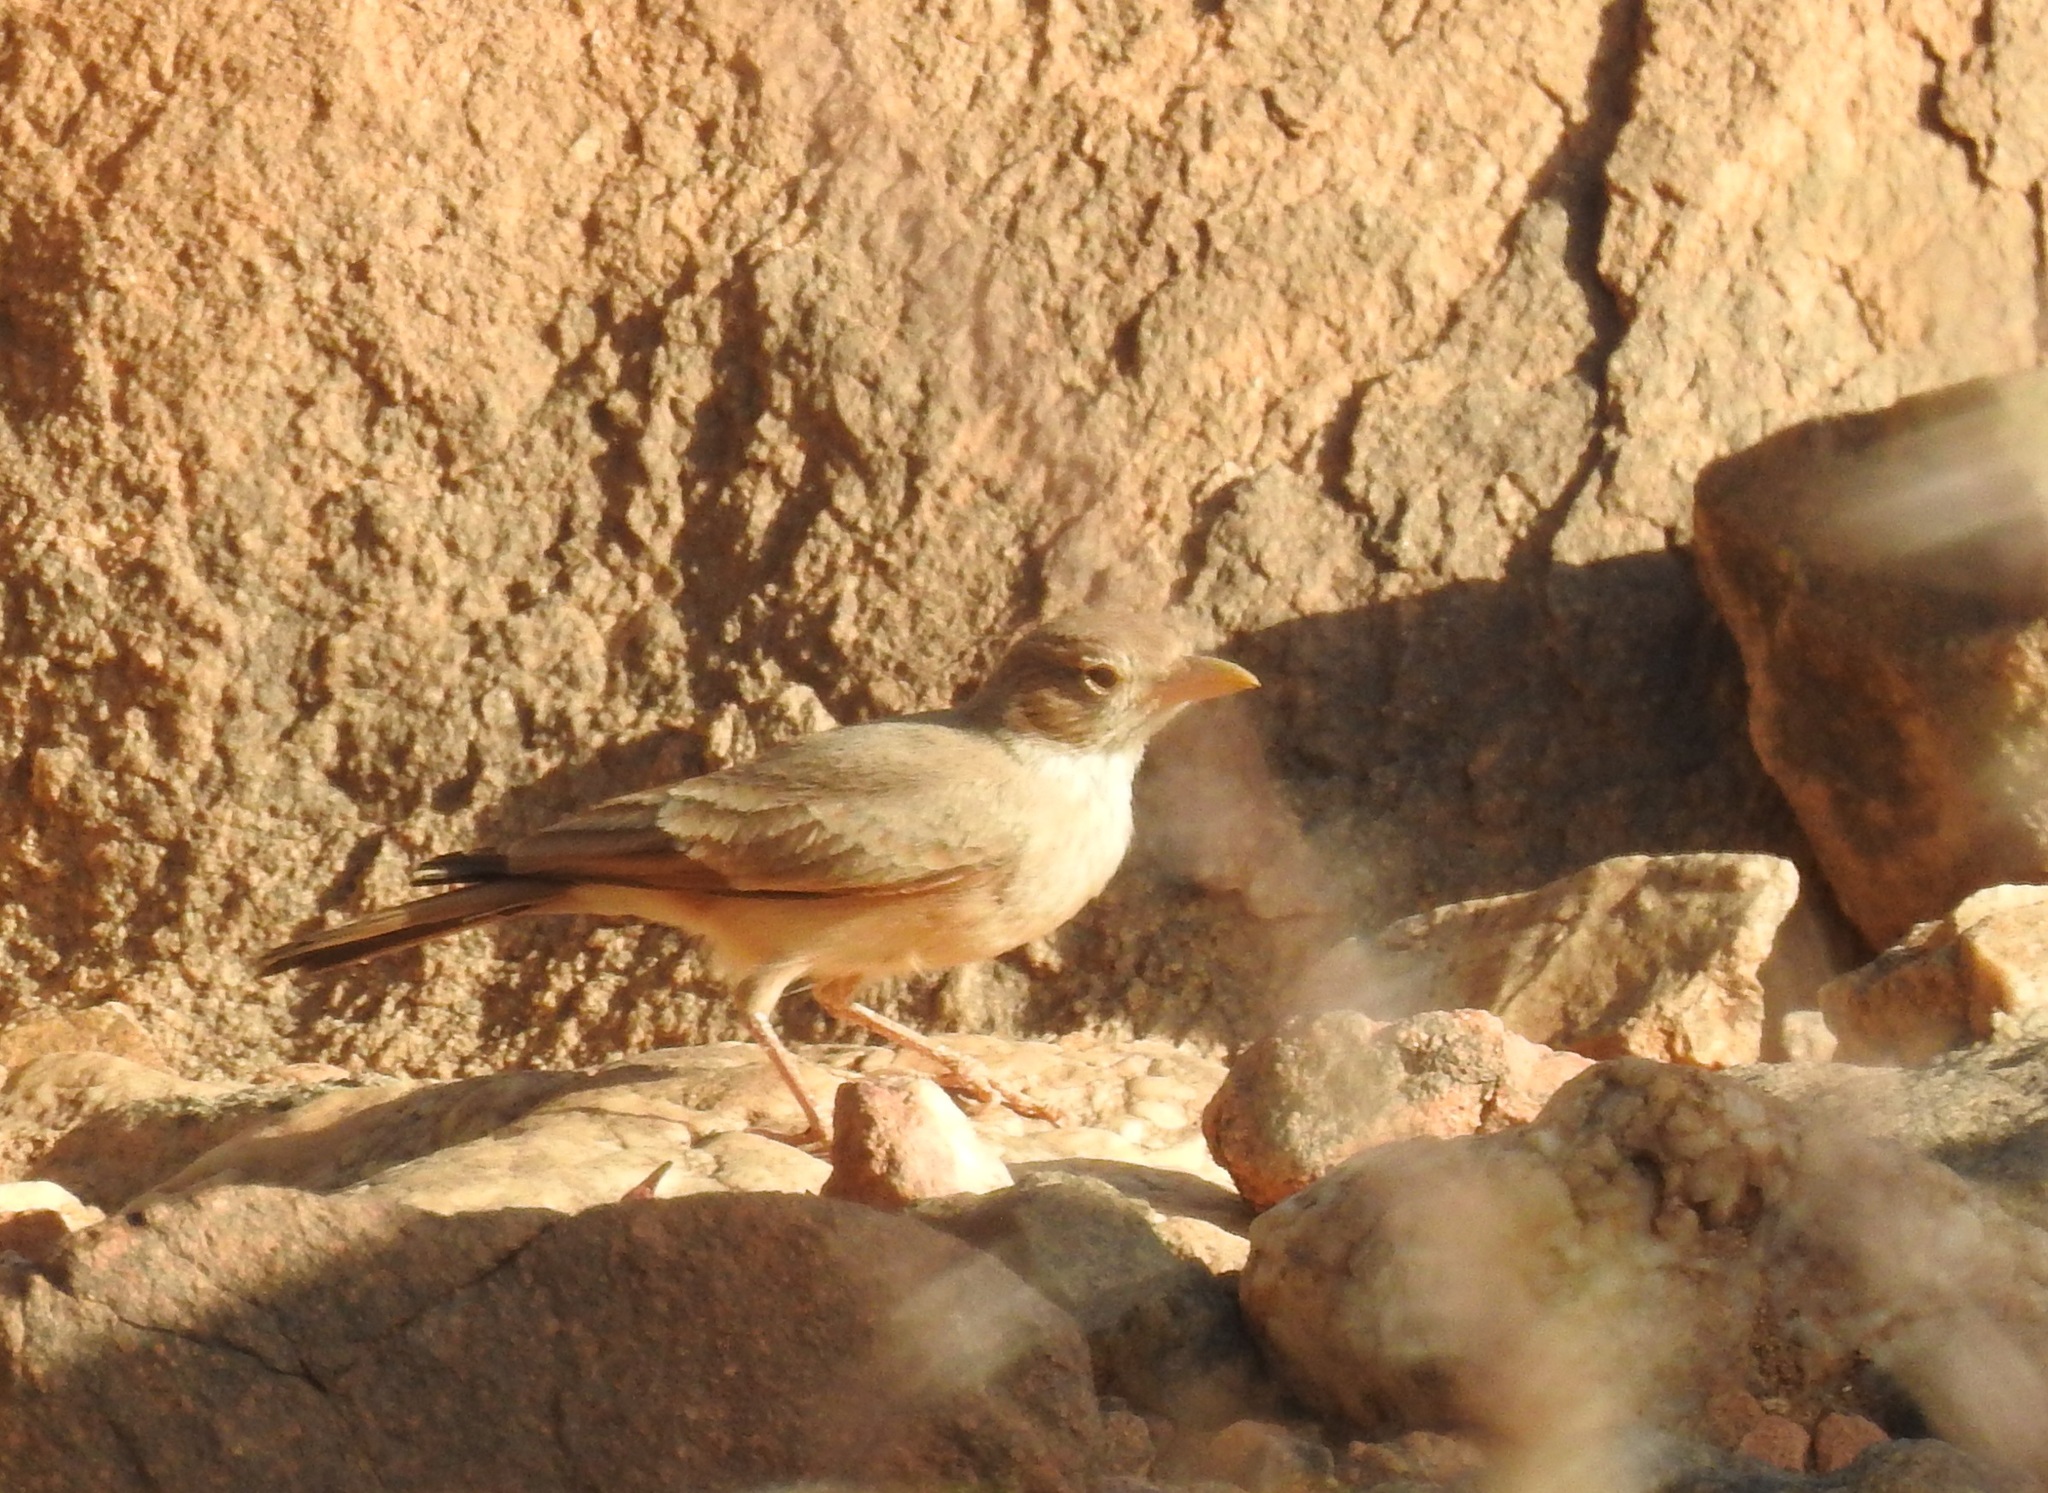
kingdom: Animalia
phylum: Chordata
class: Aves
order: Passeriformes
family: Alaudidae
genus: Ammomanes
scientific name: Ammomanes deserti
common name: Desert lark
